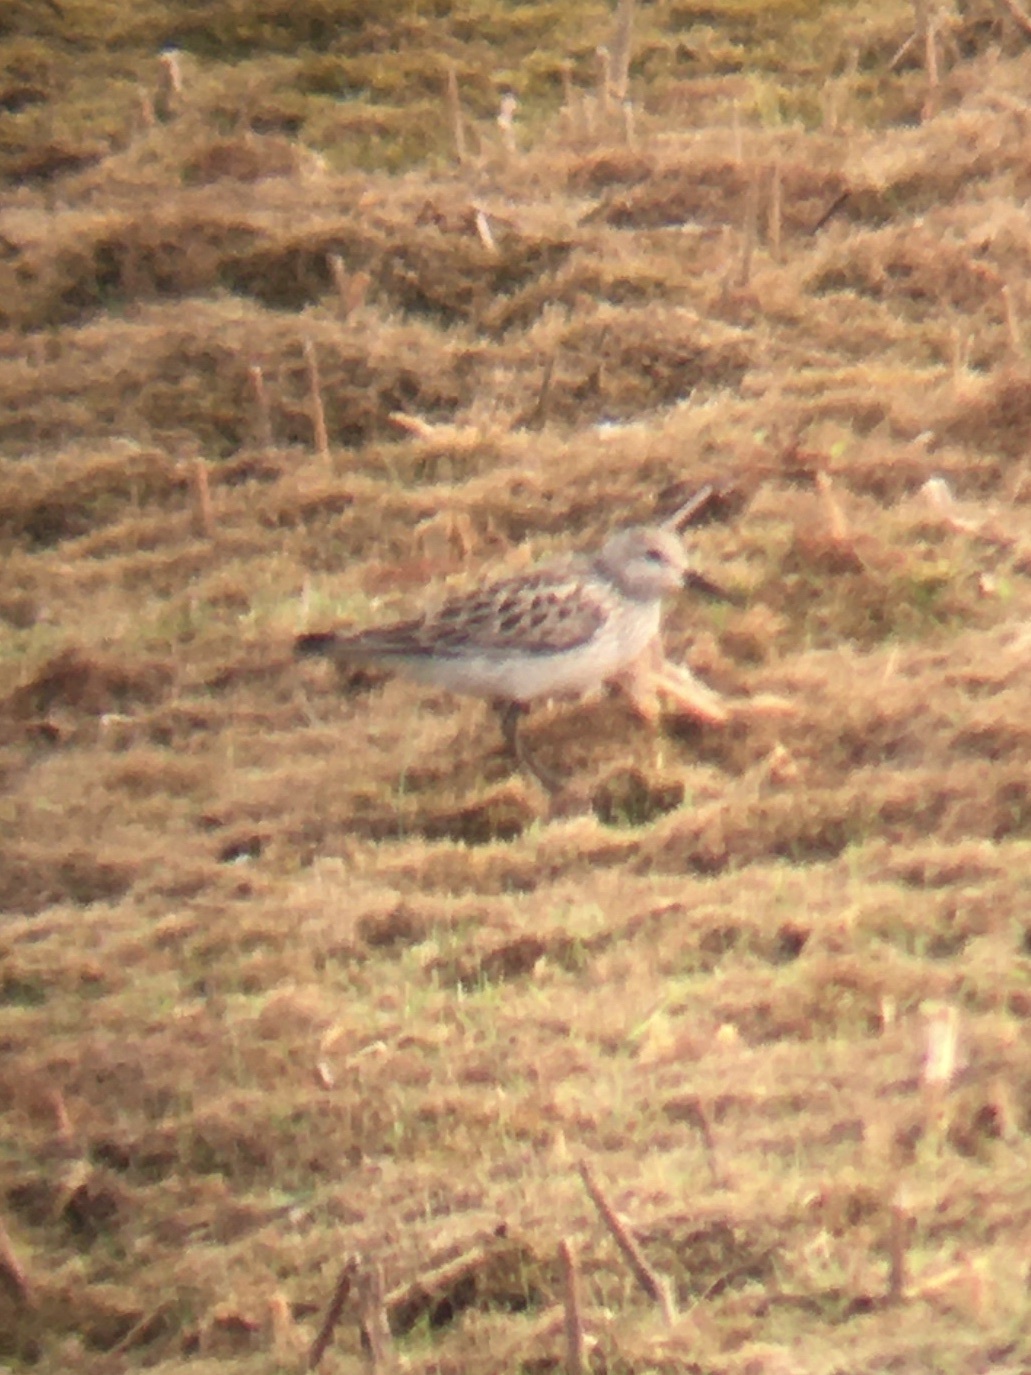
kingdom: Animalia
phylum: Chordata
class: Aves
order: Charadriiformes
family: Scolopacidae
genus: Calidris
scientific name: Calidris fuscicollis
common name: White-rumped sandpiper
